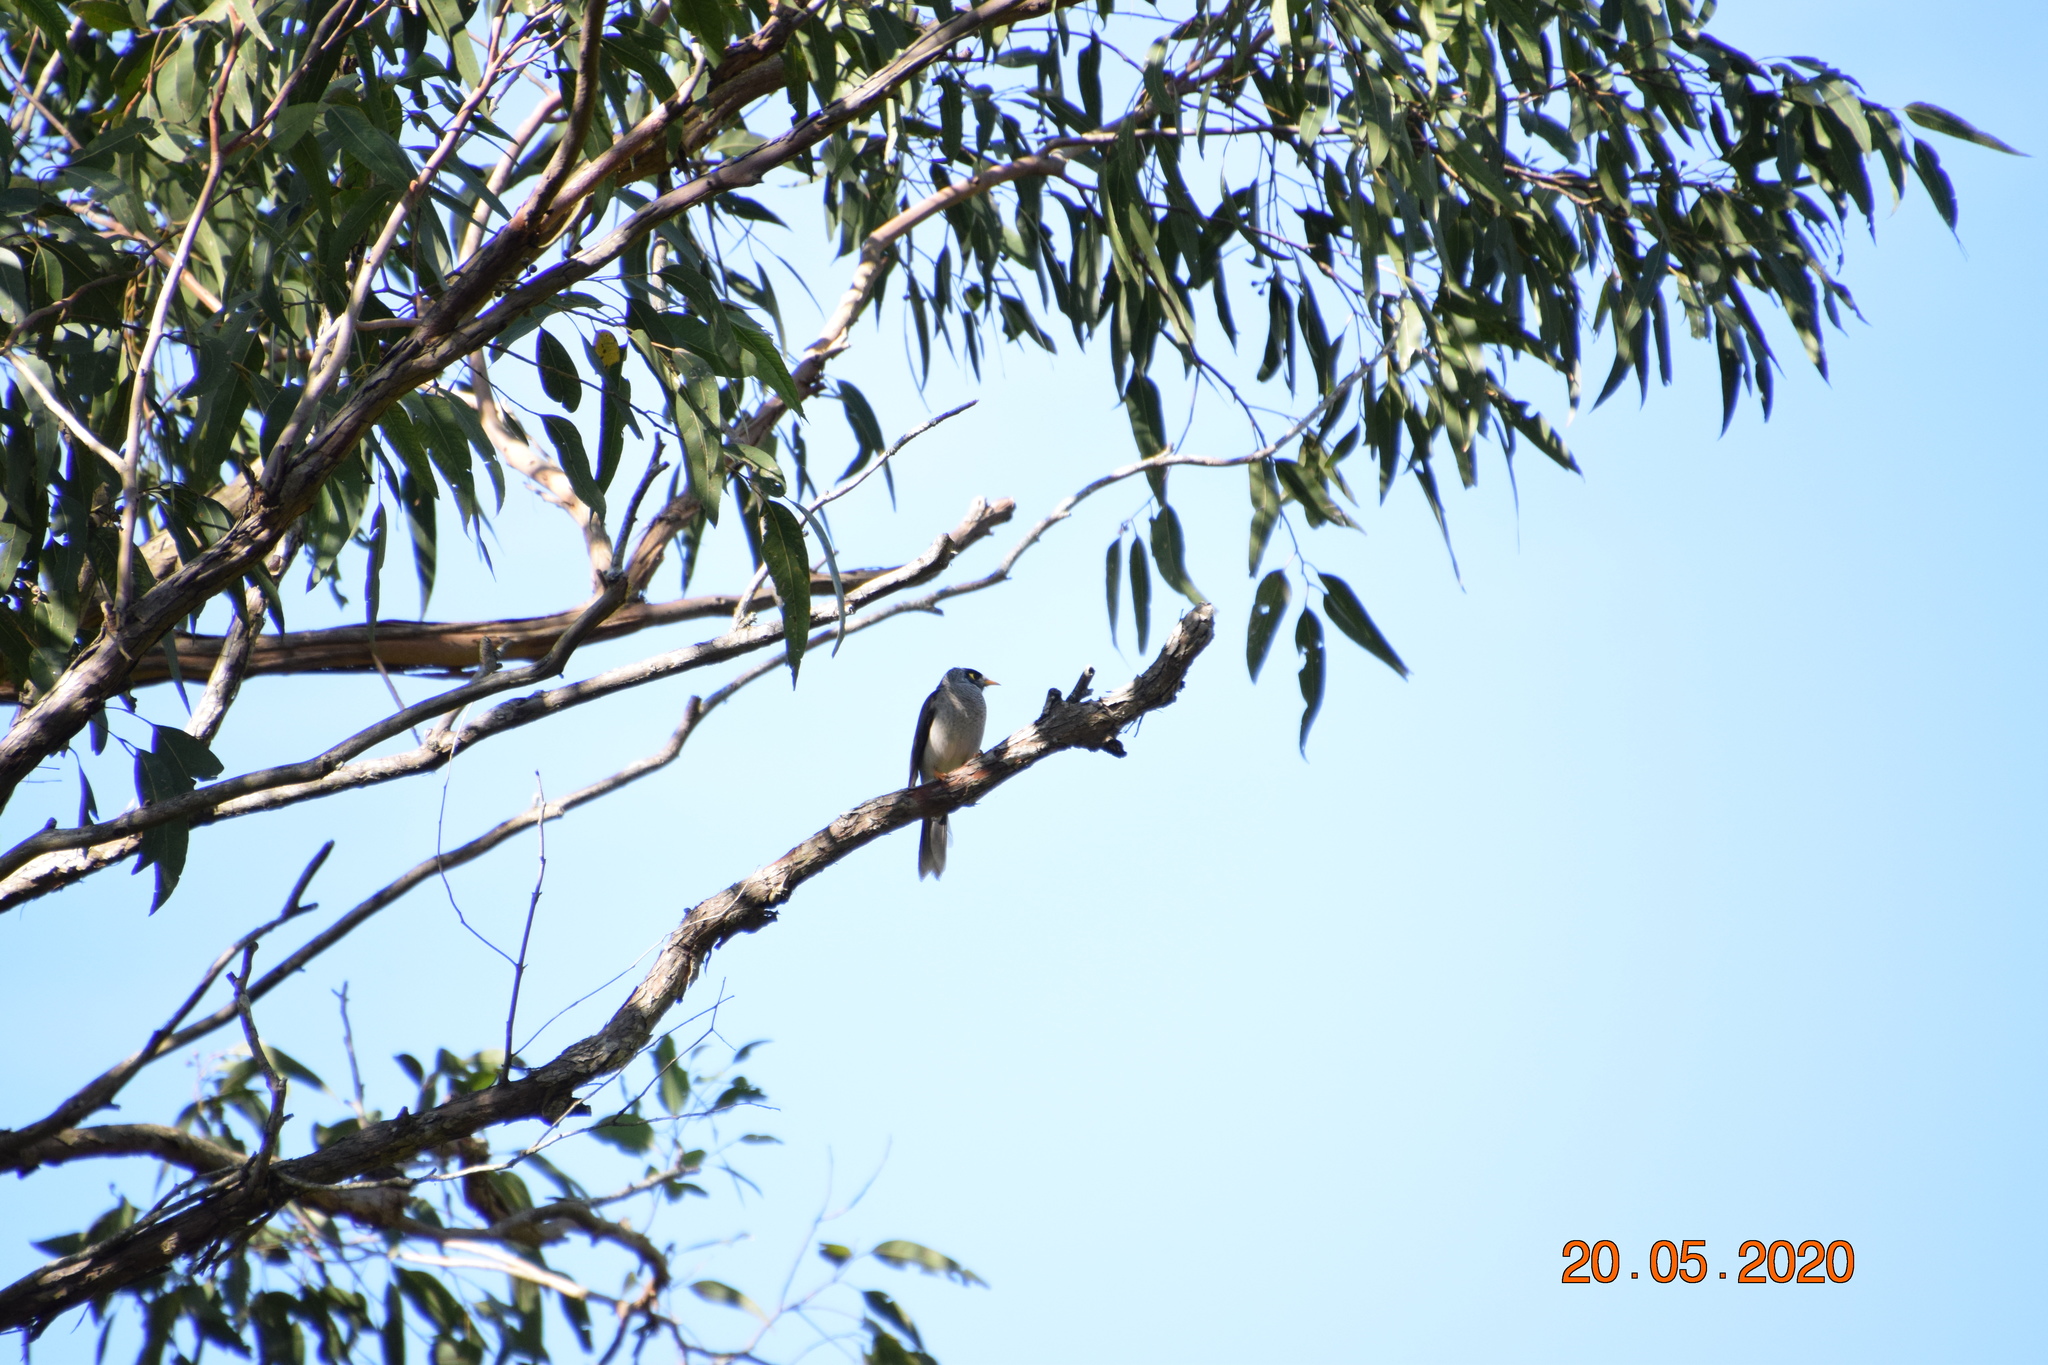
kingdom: Animalia
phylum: Chordata
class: Aves
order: Passeriformes
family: Meliphagidae
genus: Manorina
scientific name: Manorina melanocephala
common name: Noisy miner
